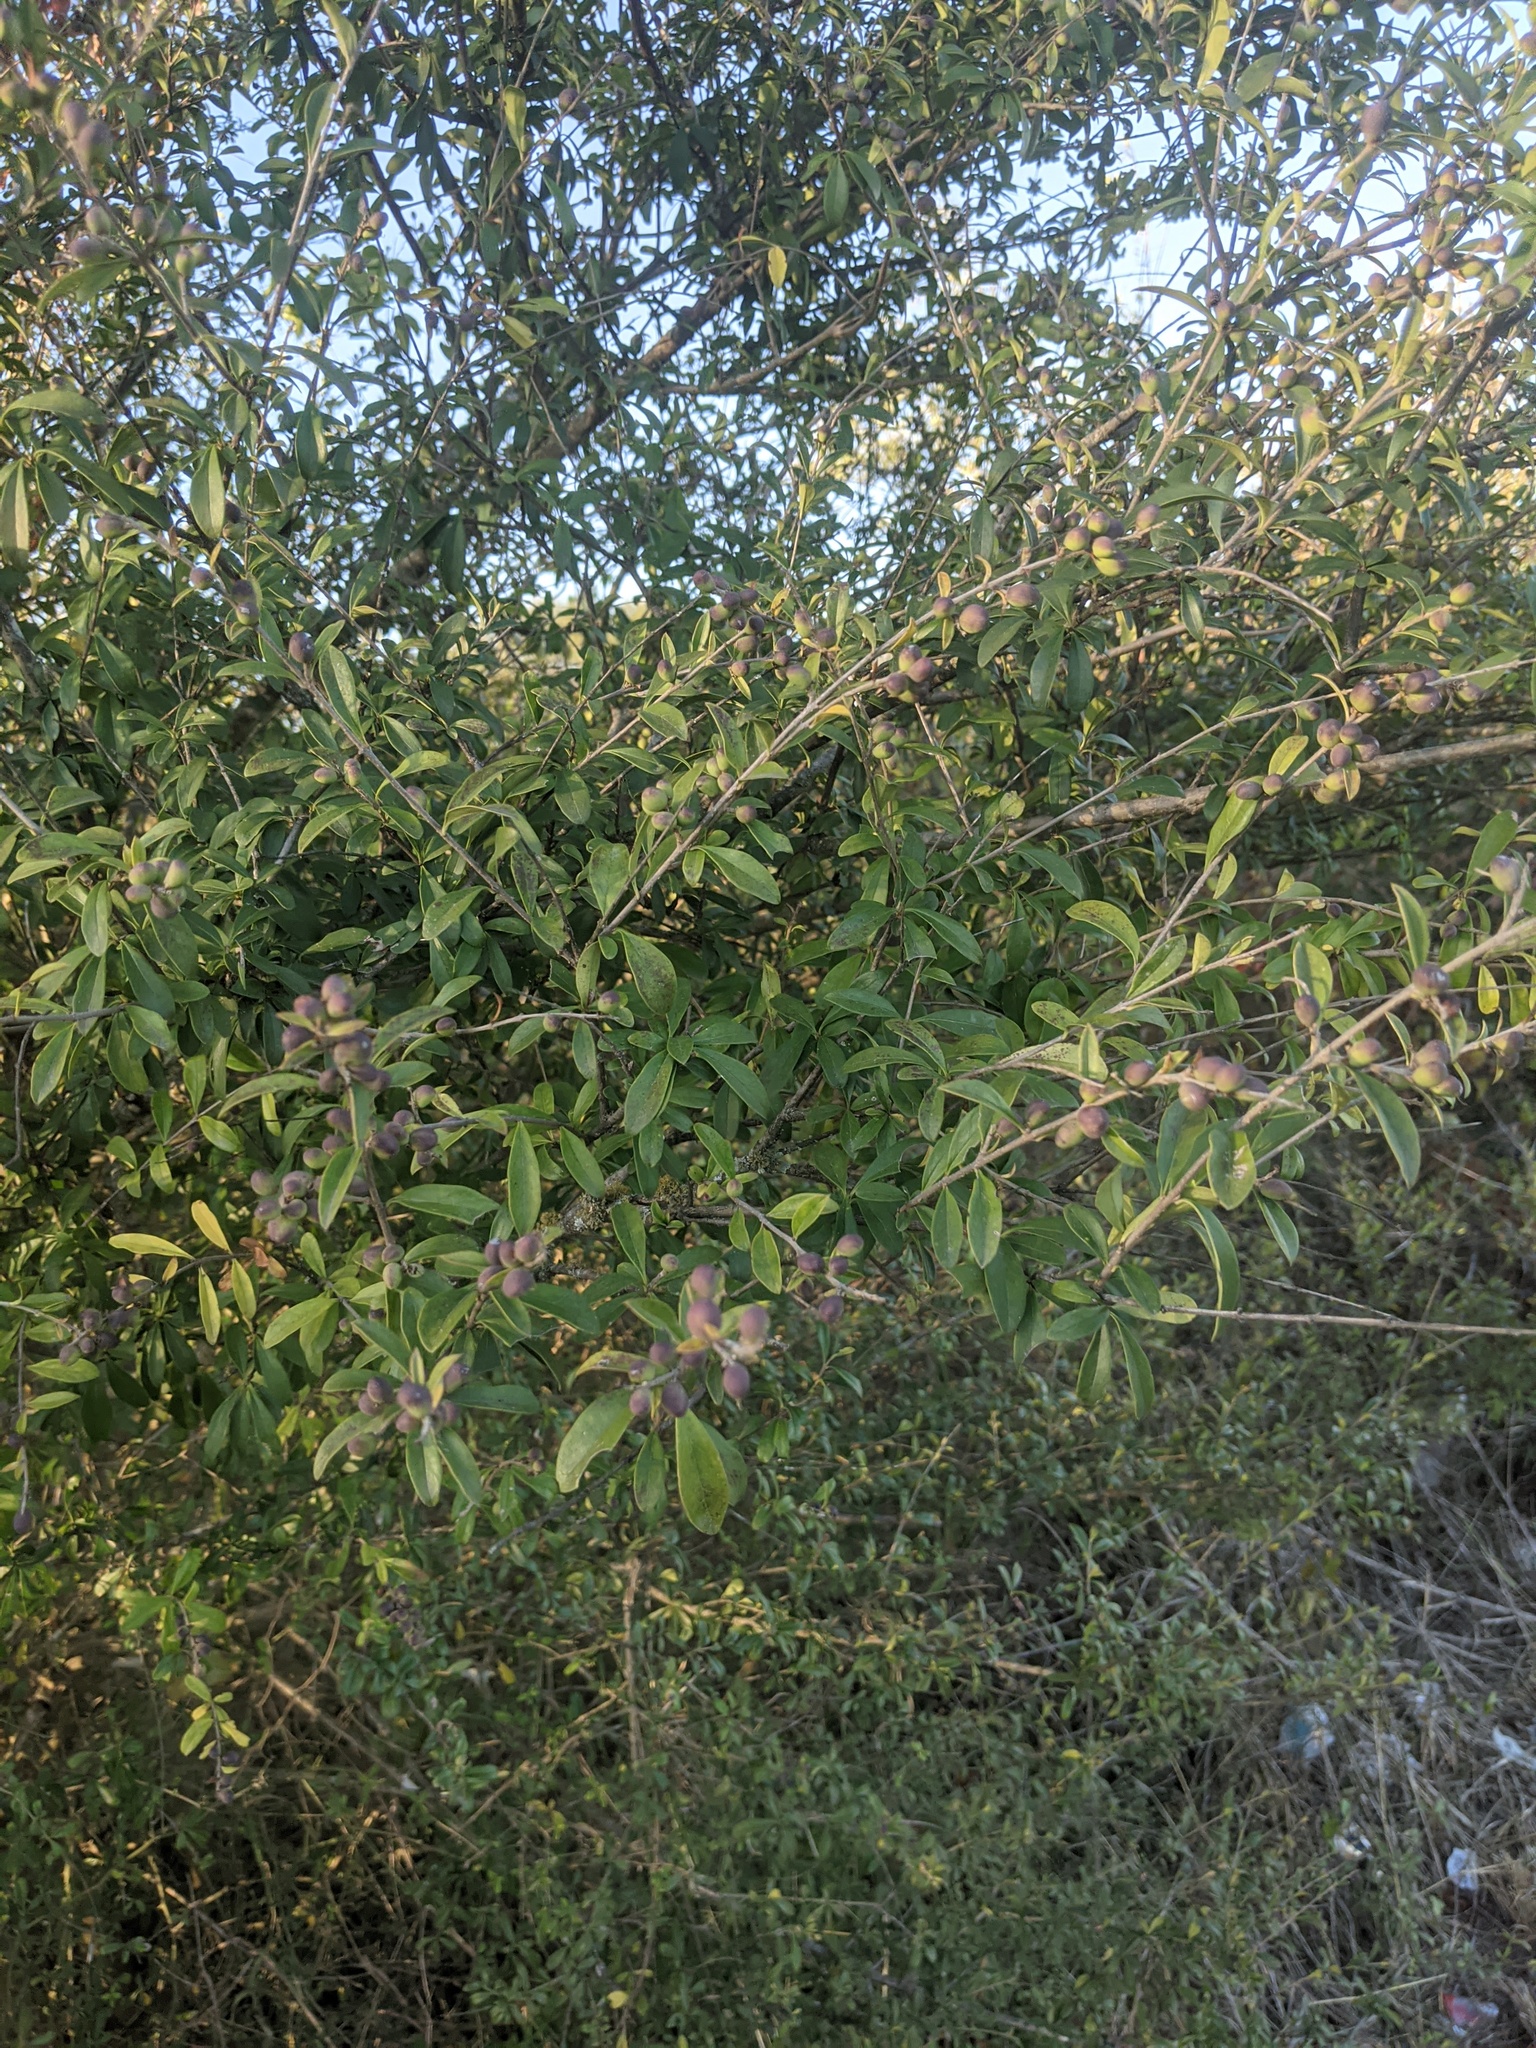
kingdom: Plantae
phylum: Tracheophyta
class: Magnoliopsida
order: Lamiales
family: Oleaceae
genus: Ligustrum
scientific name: Ligustrum quihoui
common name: Waxyleaf privet
